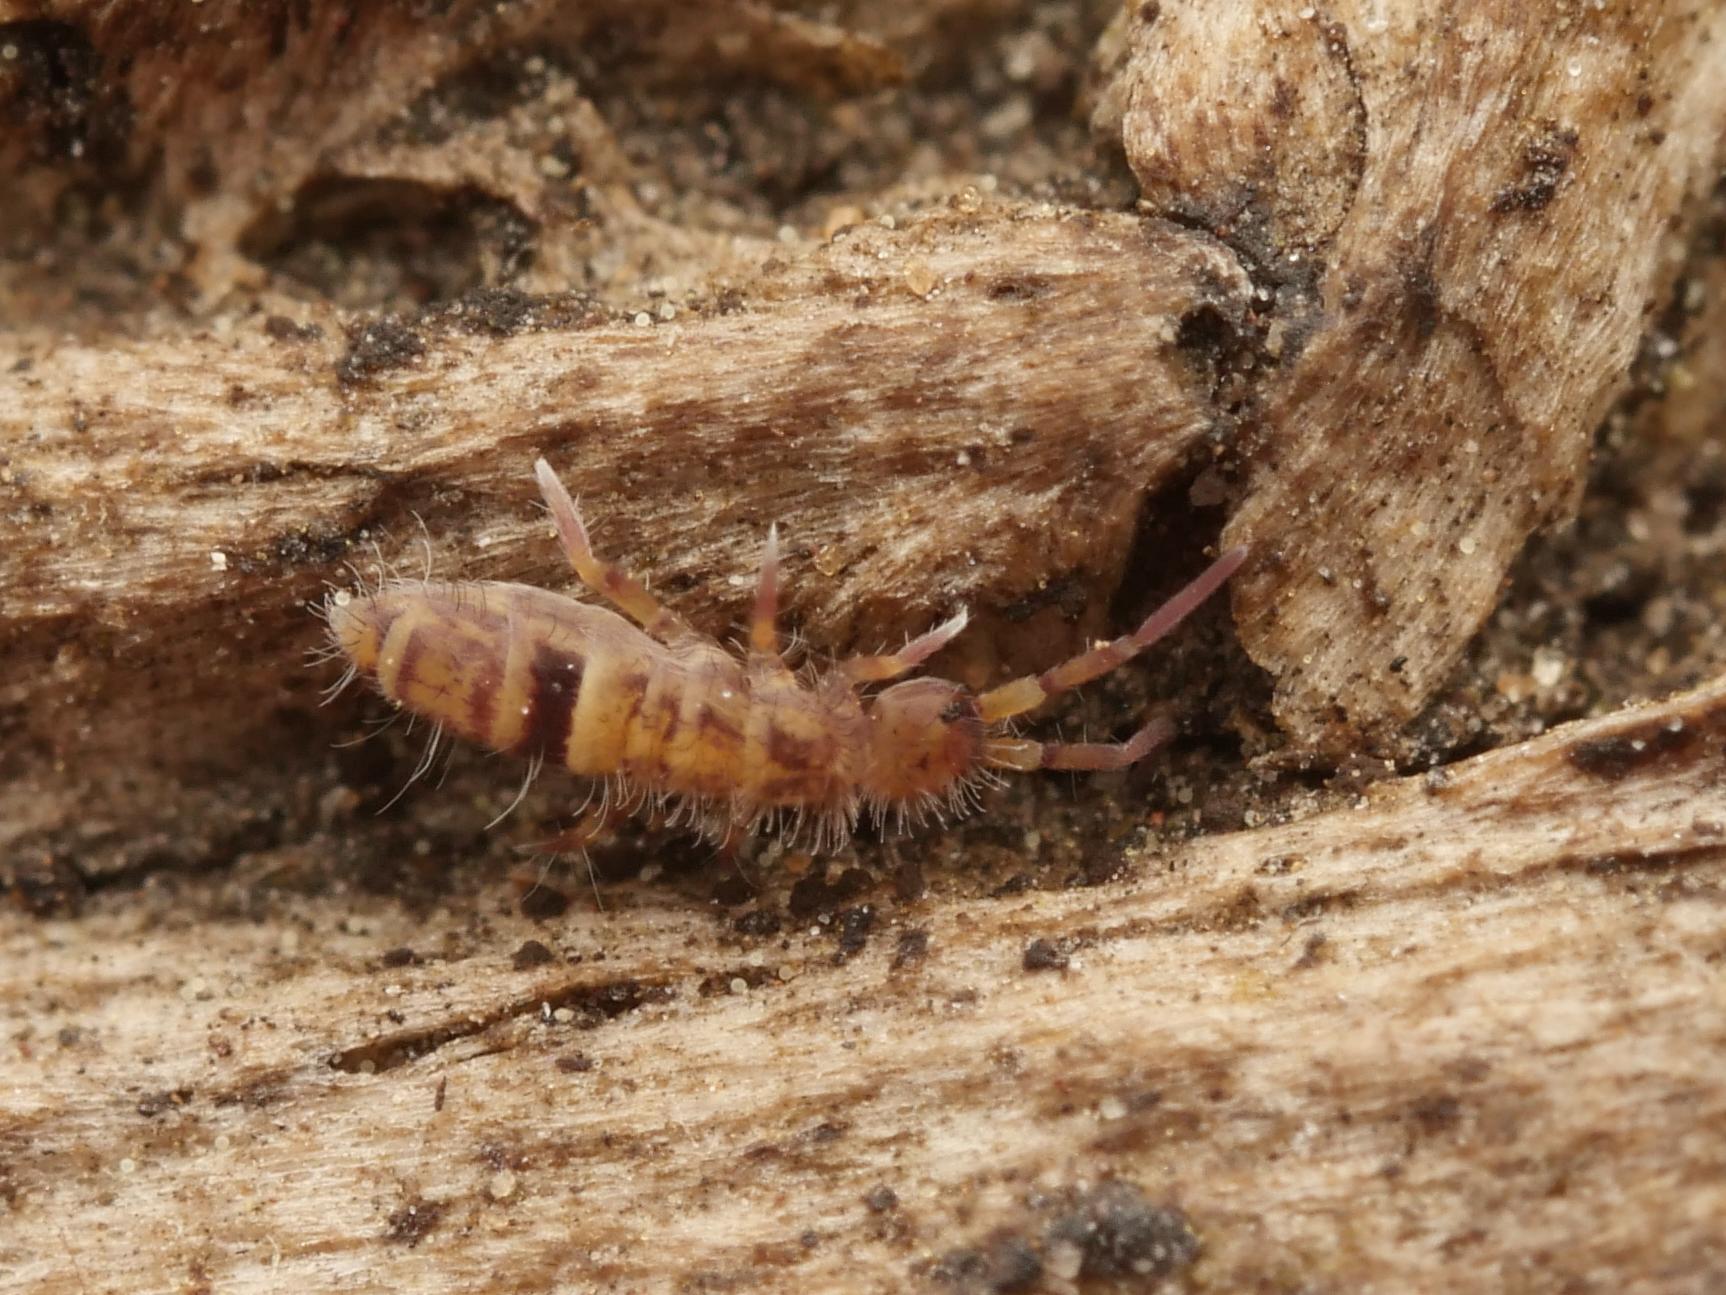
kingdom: Animalia
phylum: Arthropoda
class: Collembola
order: Entomobryomorpha
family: Orchesellidae
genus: Orchesella
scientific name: Orchesella cincta
